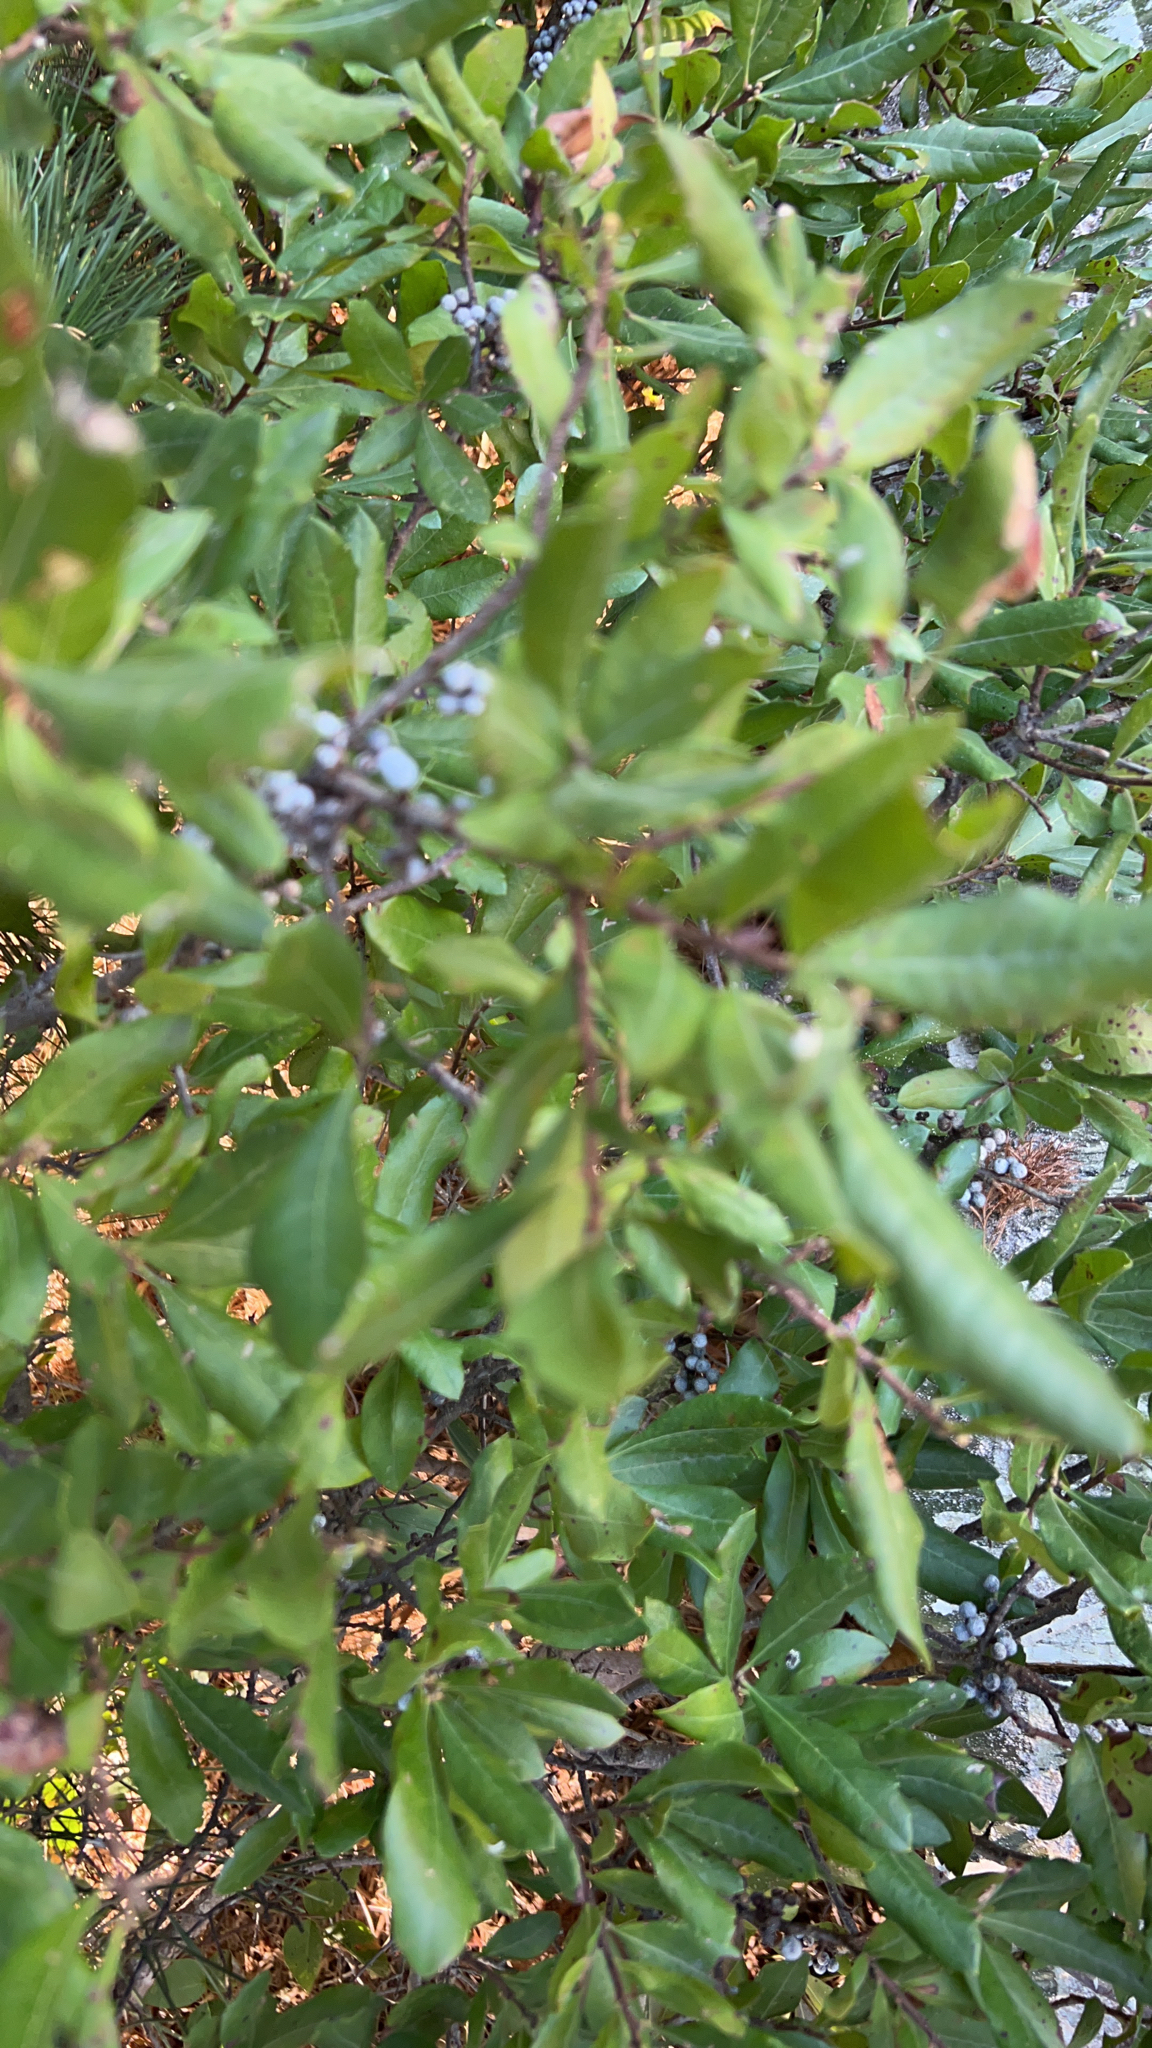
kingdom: Plantae
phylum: Tracheophyta
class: Magnoliopsida
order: Fagales
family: Myricaceae
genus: Morella
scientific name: Morella pensylvanica
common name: Northern bayberry
